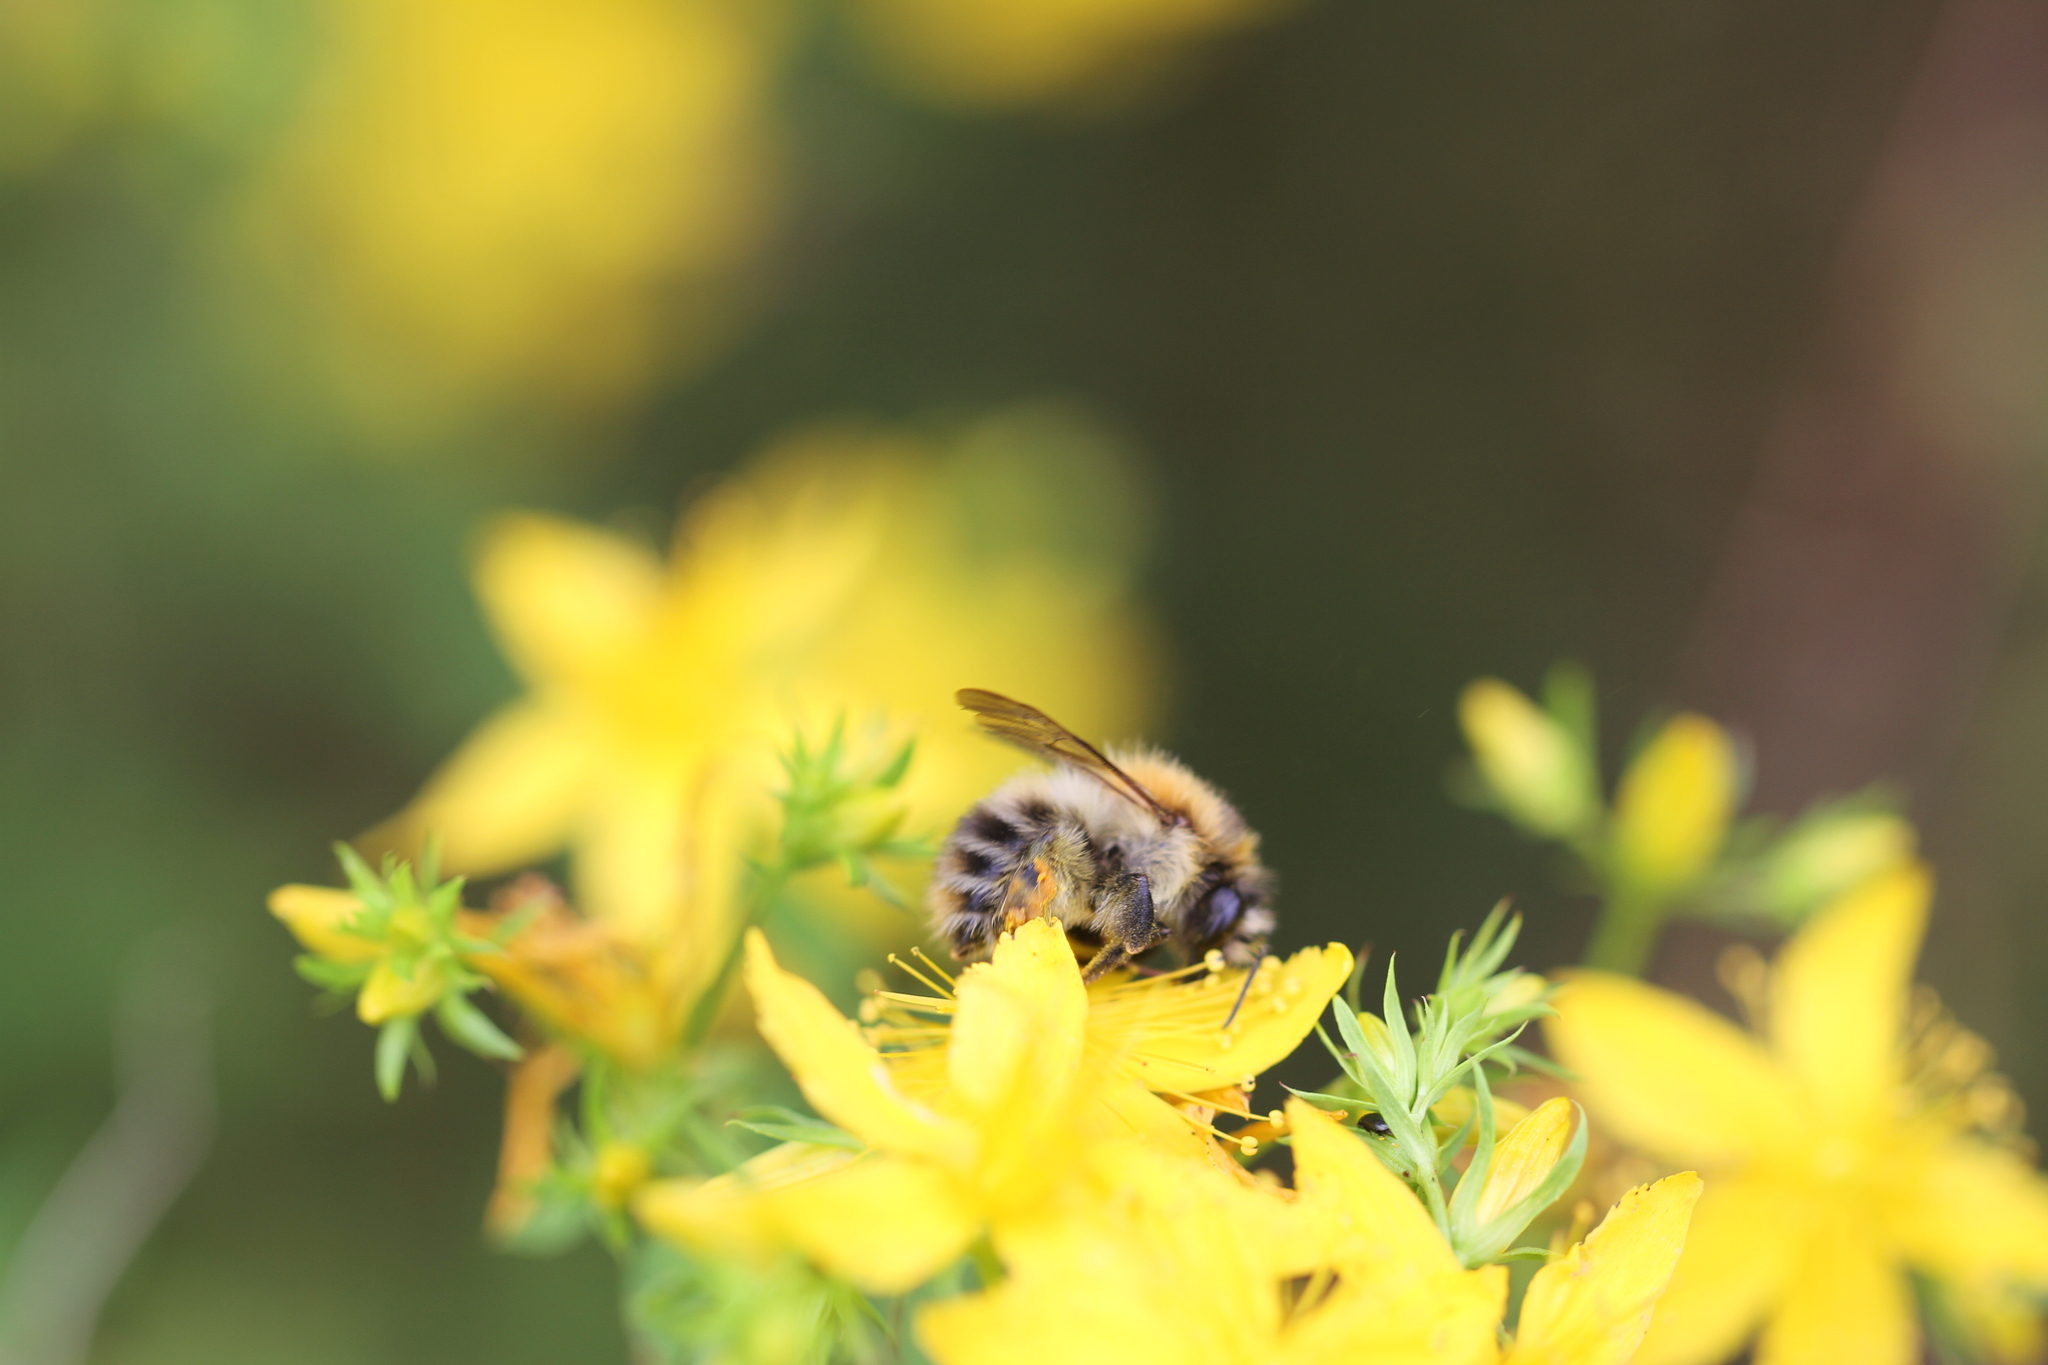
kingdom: Animalia
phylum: Arthropoda
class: Insecta
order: Hymenoptera
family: Apidae
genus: Bombus
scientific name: Bombus pascuorum
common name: Common carder bee
